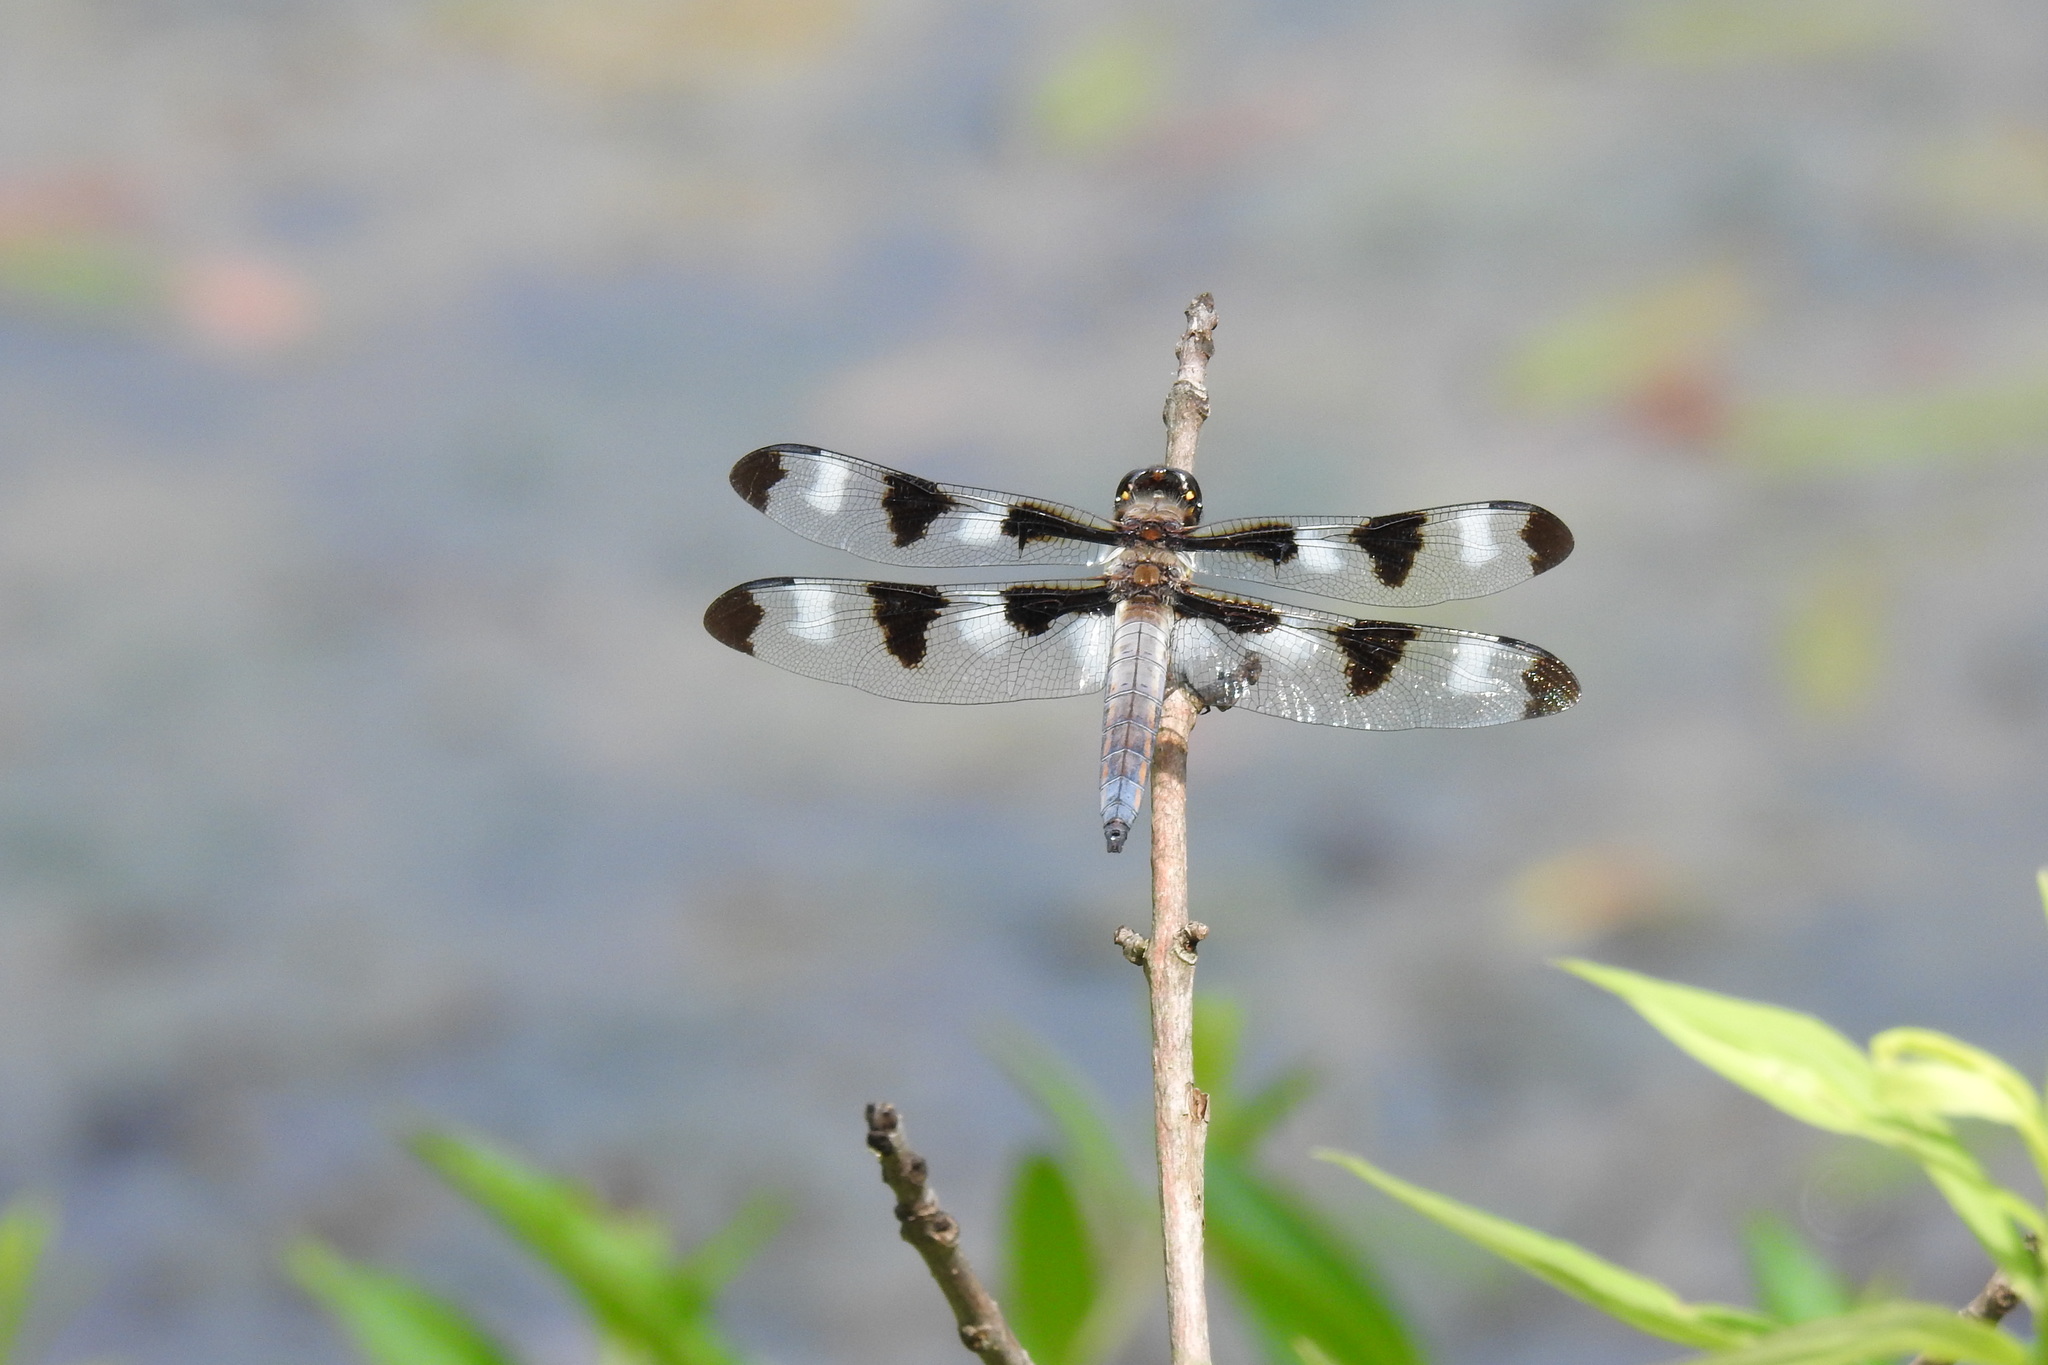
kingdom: Animalia
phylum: Arthropoda
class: Insecta
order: Odonata
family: Libellulidae
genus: Libellula
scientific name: Libellula pulchella
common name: Twelve-spotted skimmer
